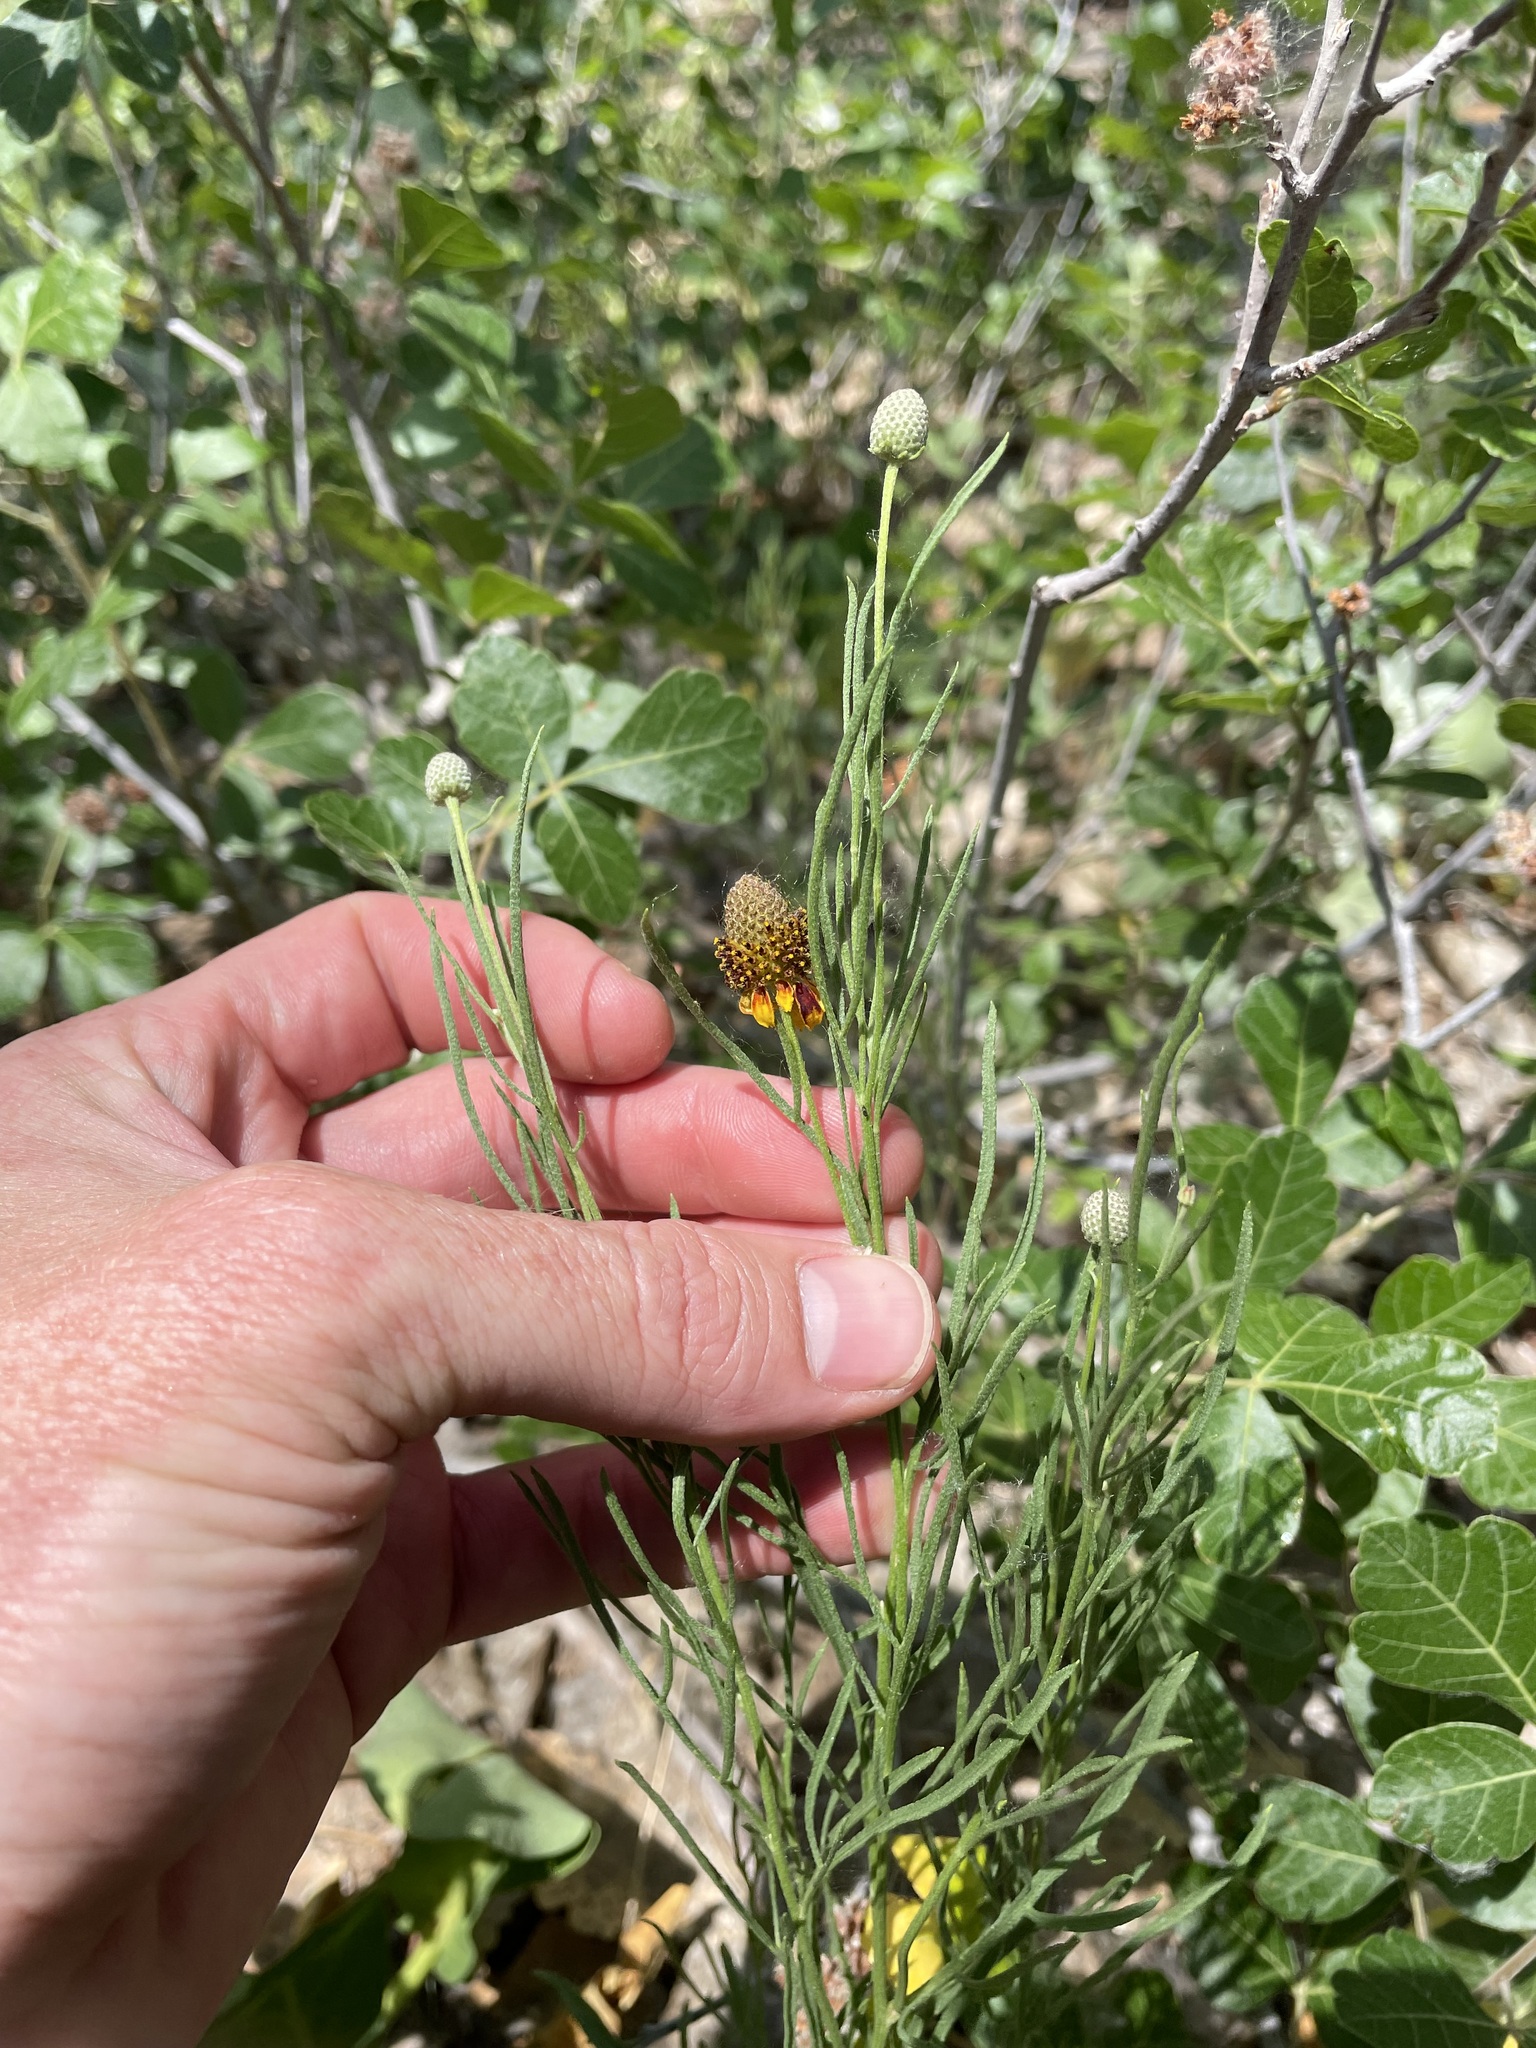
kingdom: Plantae
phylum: Tracheophyta
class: Magnoliopsida
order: Asterales
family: Asteraceae
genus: Ratibida
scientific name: Ratibida tagetes
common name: Green mexican-hat
